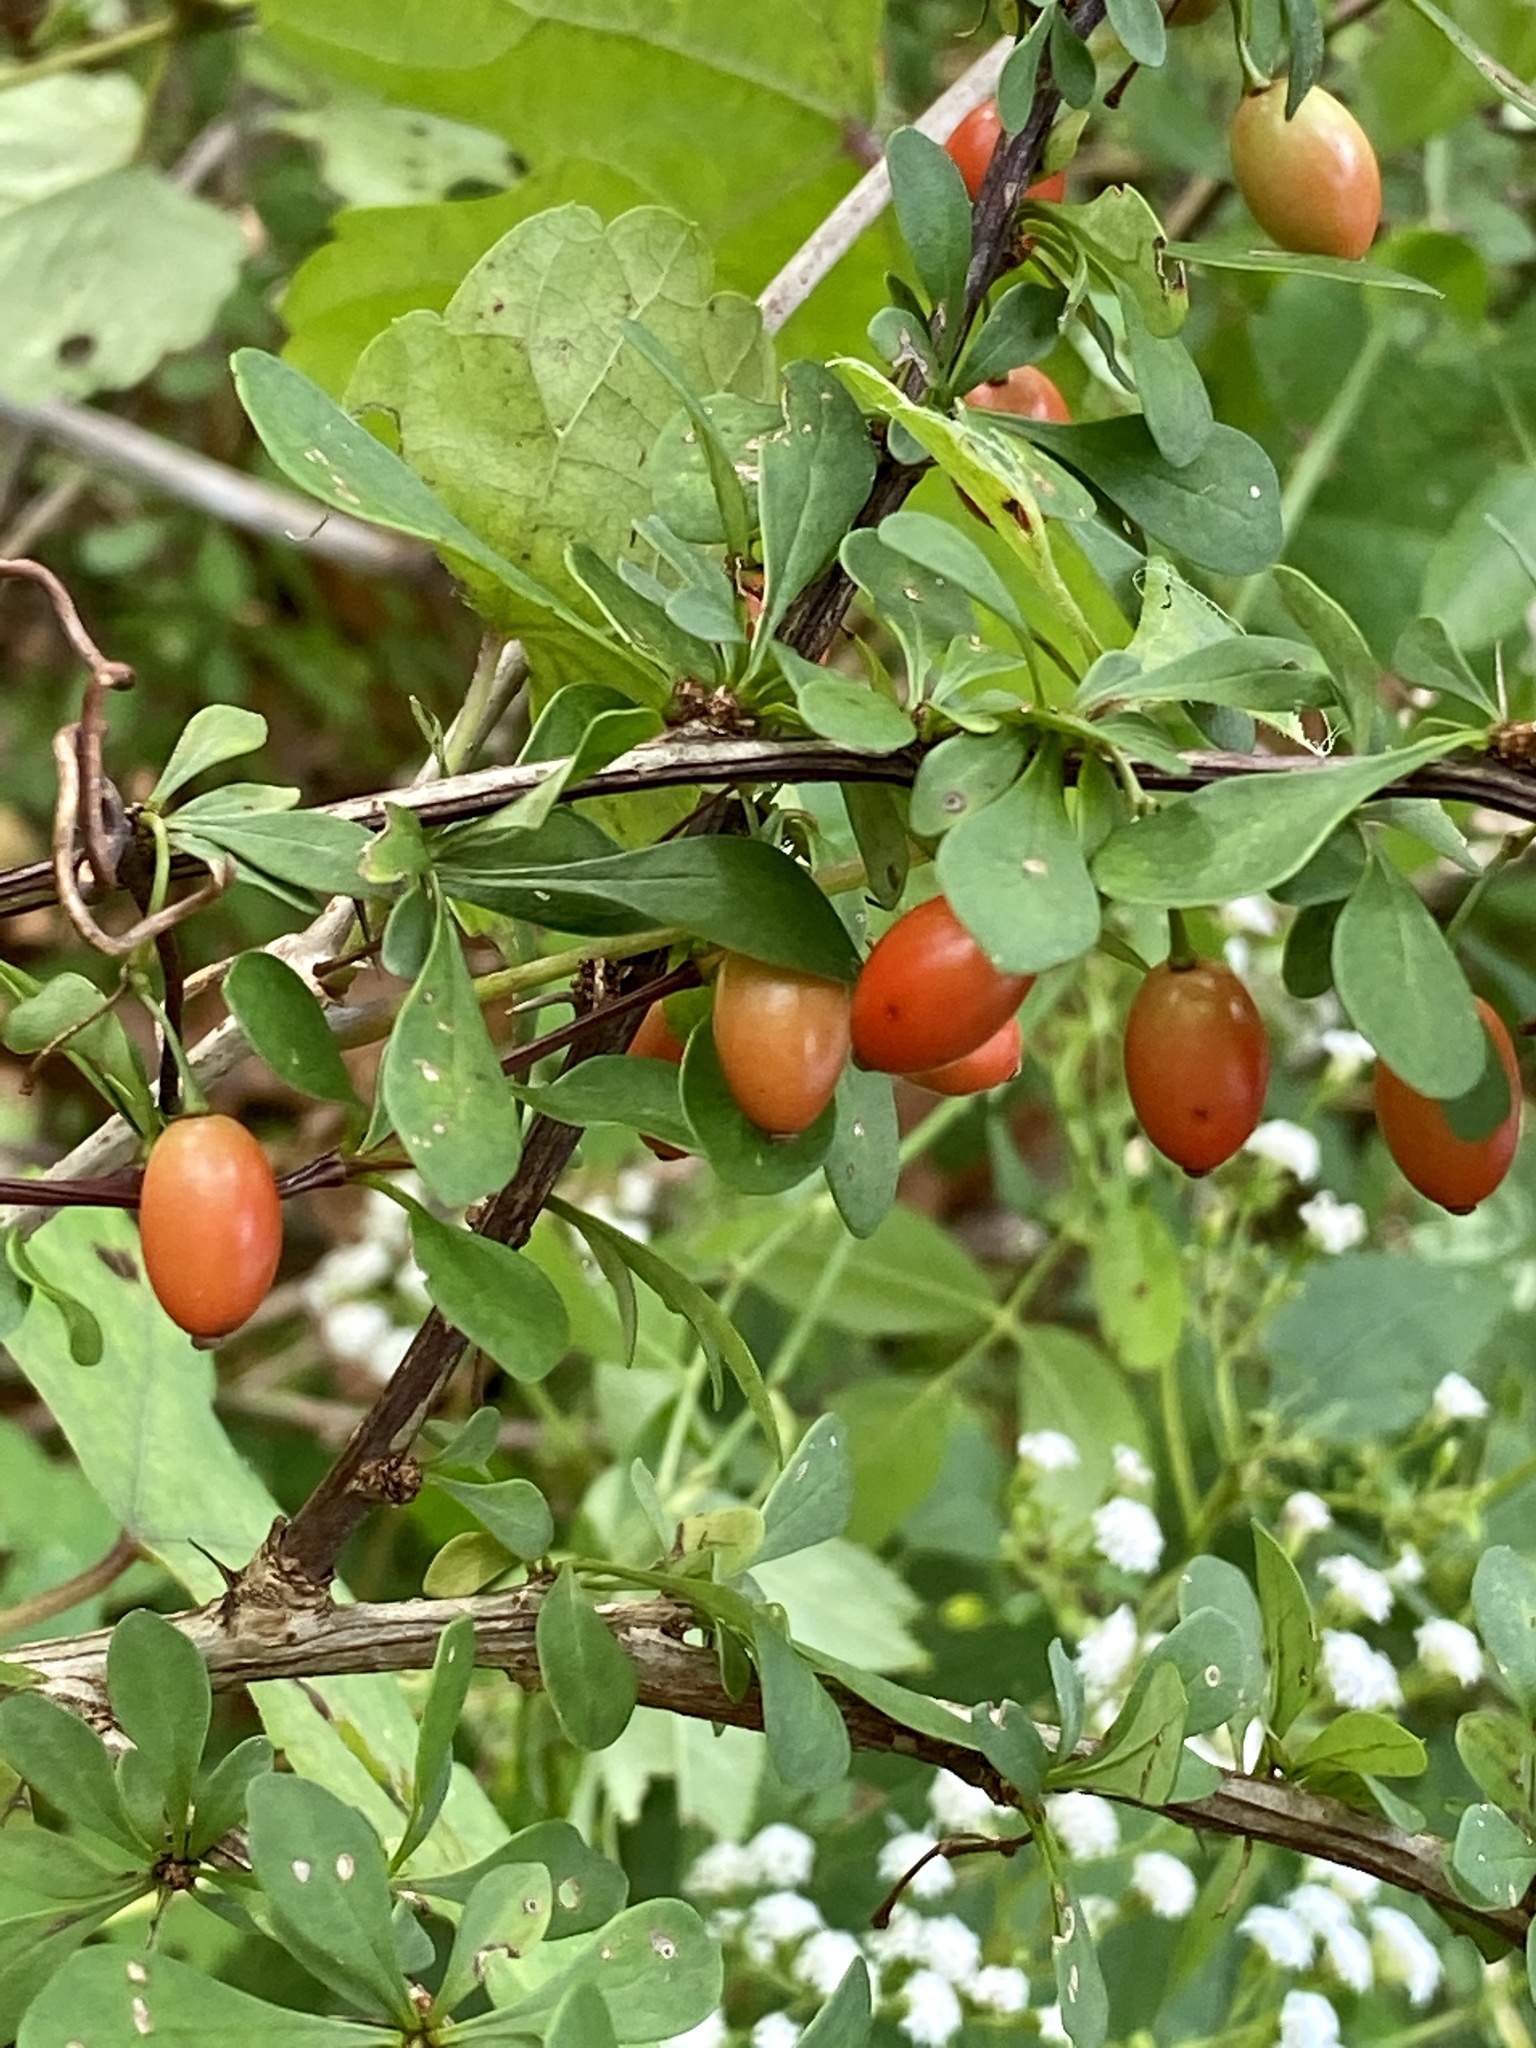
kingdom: Plantae
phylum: Tracheophyta
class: Magnoliopsida
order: Ranunculales
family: Berberidaceae
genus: Berberis
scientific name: Berberis thunbergii
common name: Japanese barberry
